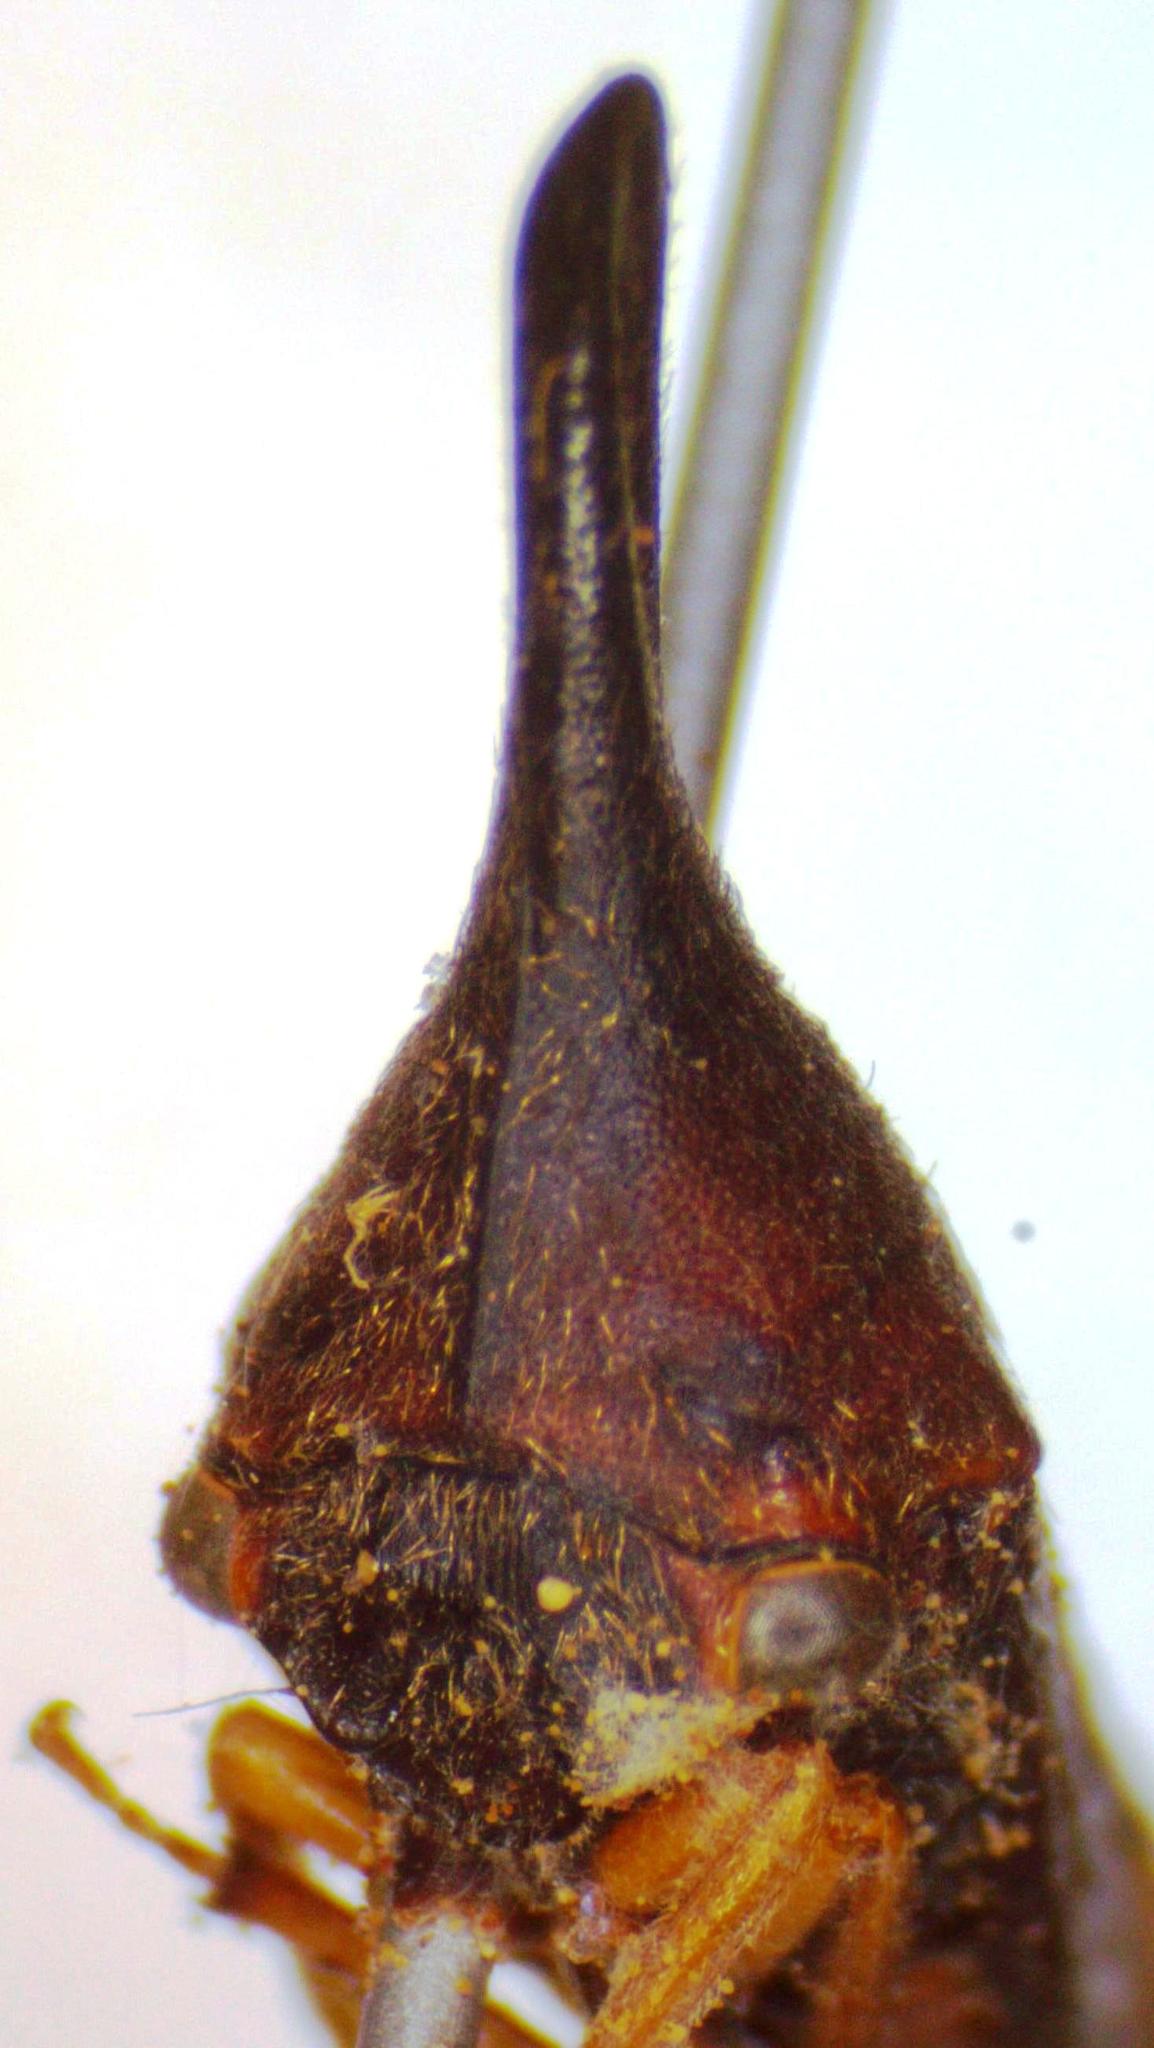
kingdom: Animalia
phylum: Arthropoda
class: Insecta
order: Hemiptera
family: Membracidae
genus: Aconophora
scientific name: Aconophora laminata
